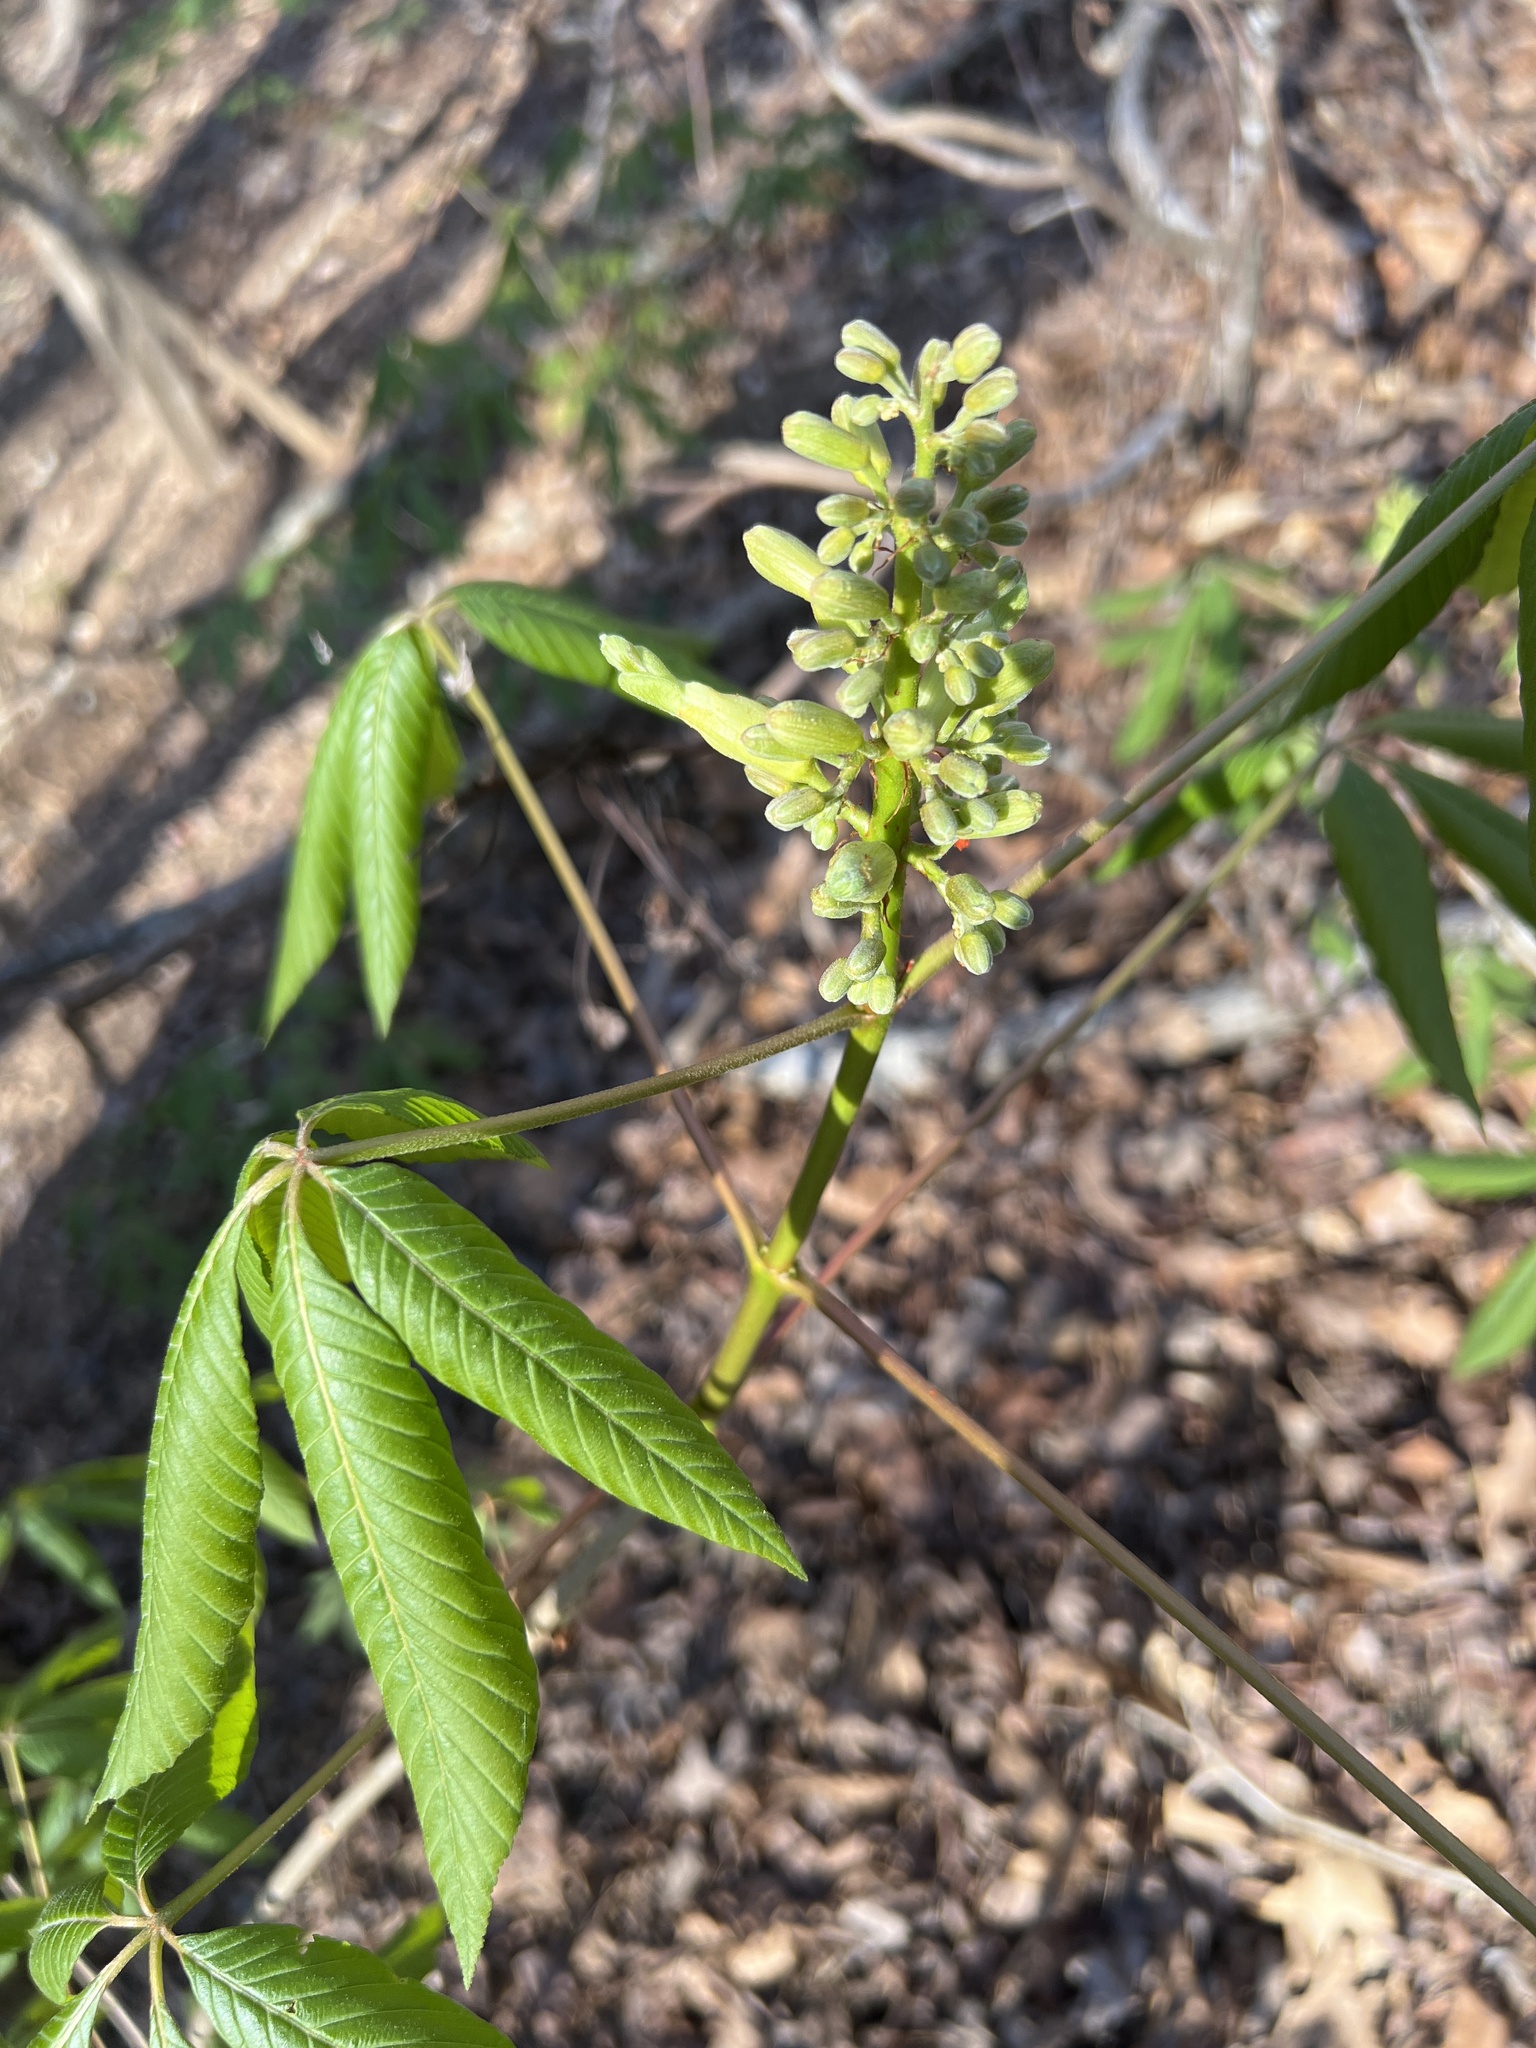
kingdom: Plantae
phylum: Tracheophyta
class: Magnoliopsida
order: Sapindales
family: Sapindaceae
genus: Aesculus
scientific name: Aesculus sylvatica
